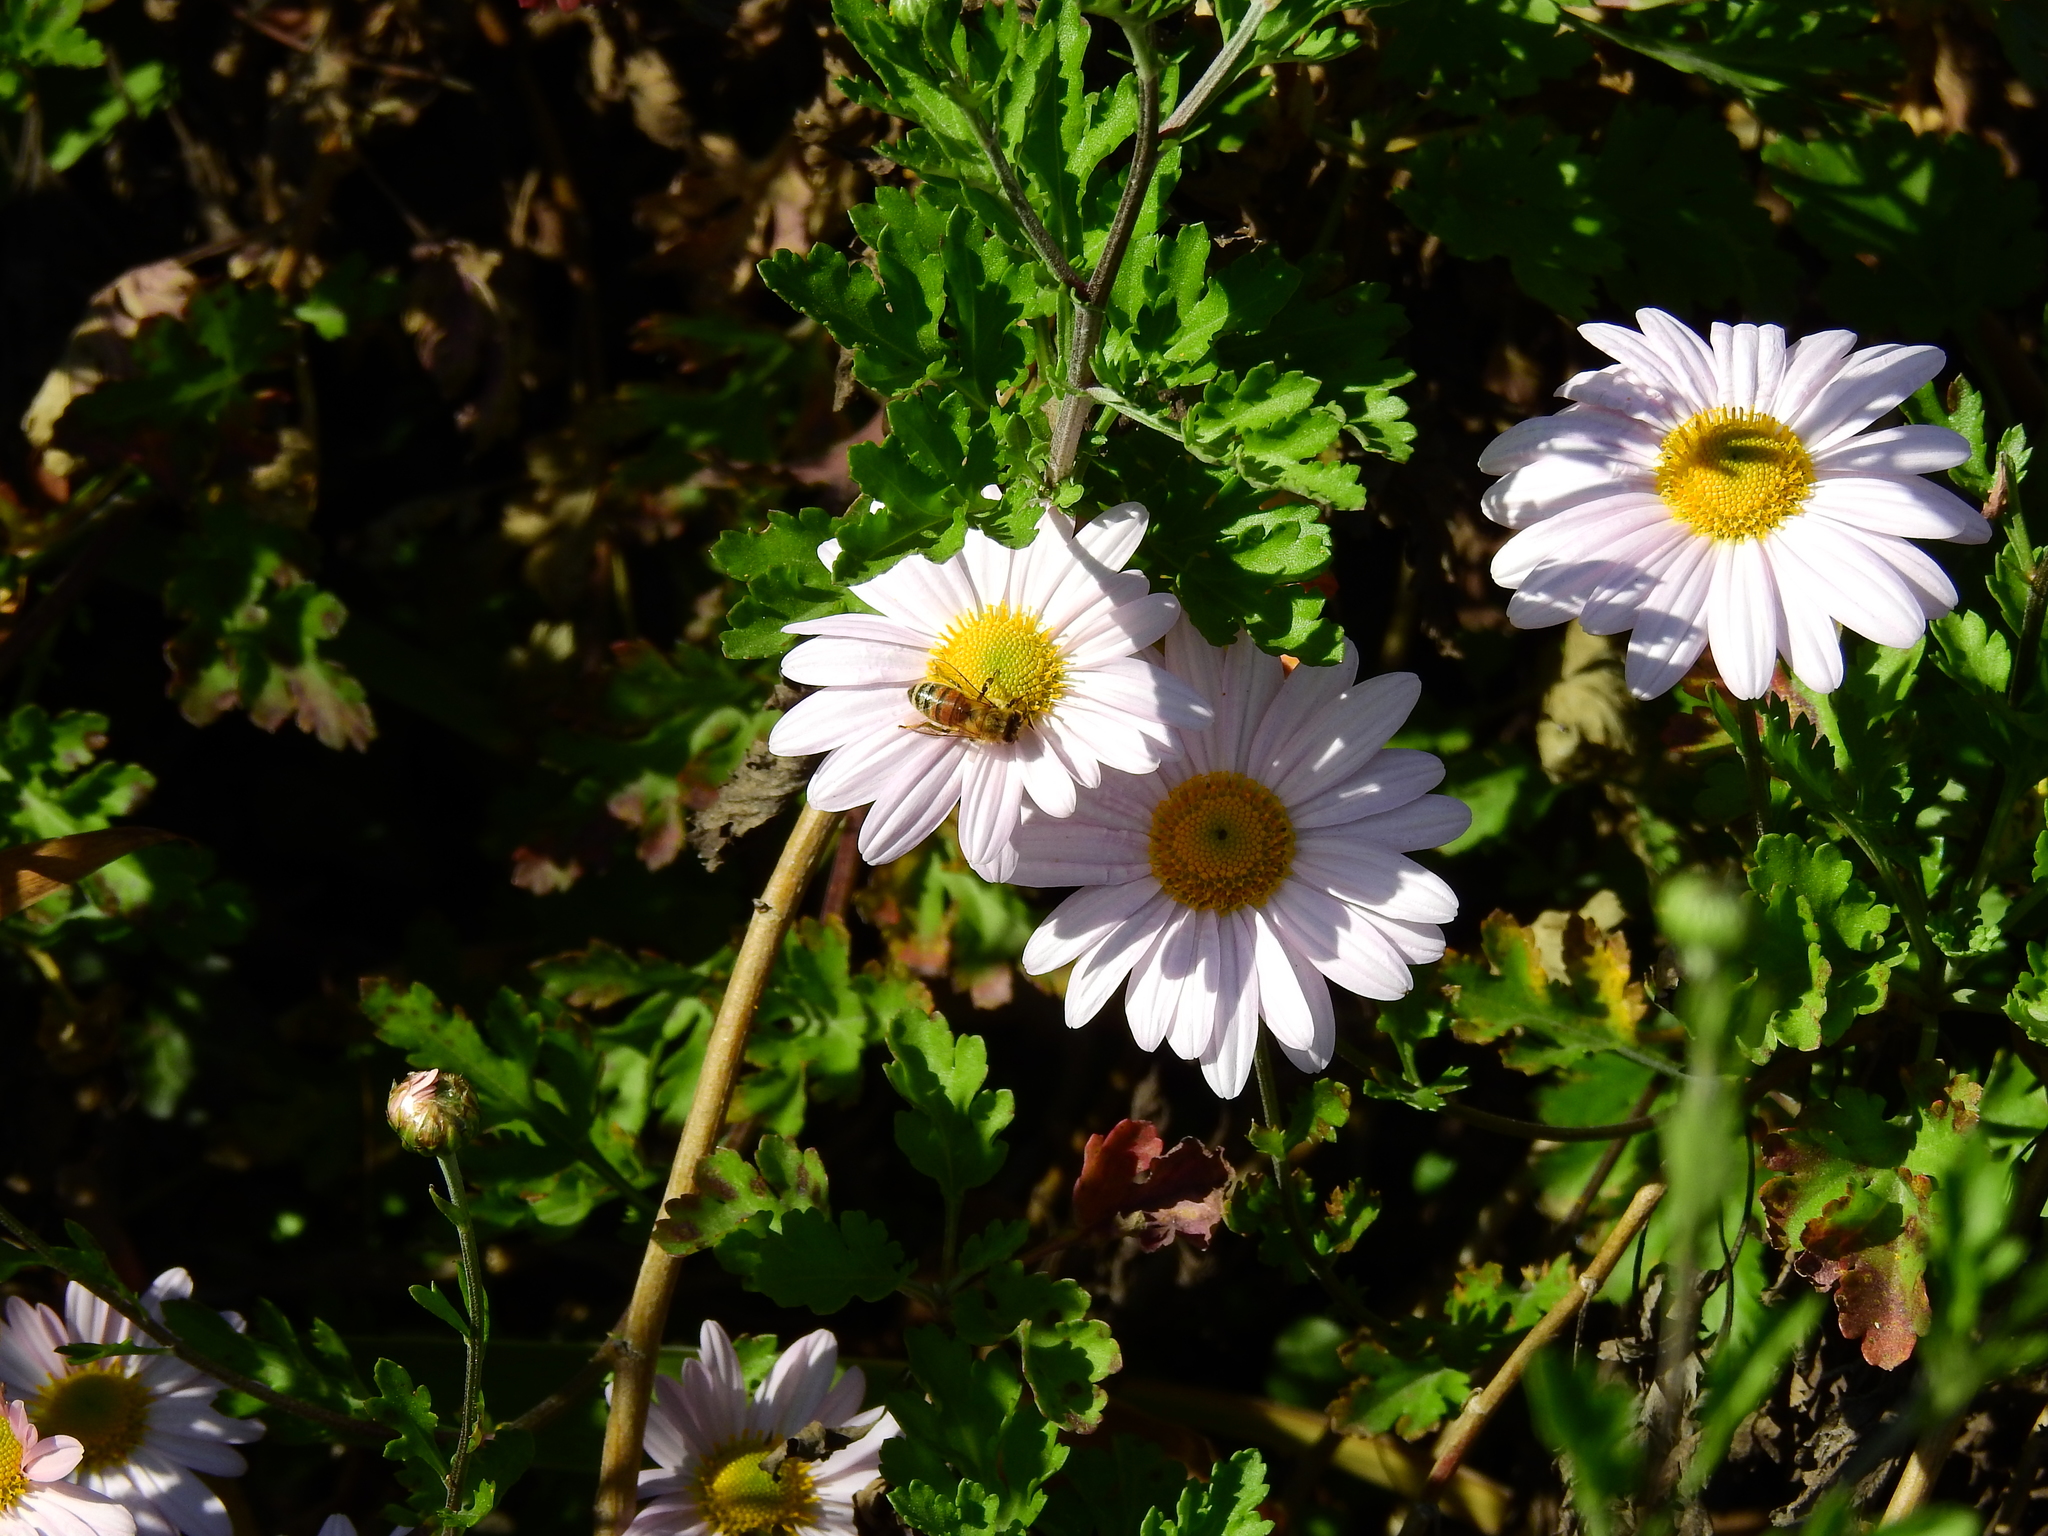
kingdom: Animalia
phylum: Arthropoda
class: Insecta
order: Hymenoptera
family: Apidae
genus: Apis
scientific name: Apis mellifera
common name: Honey bee
